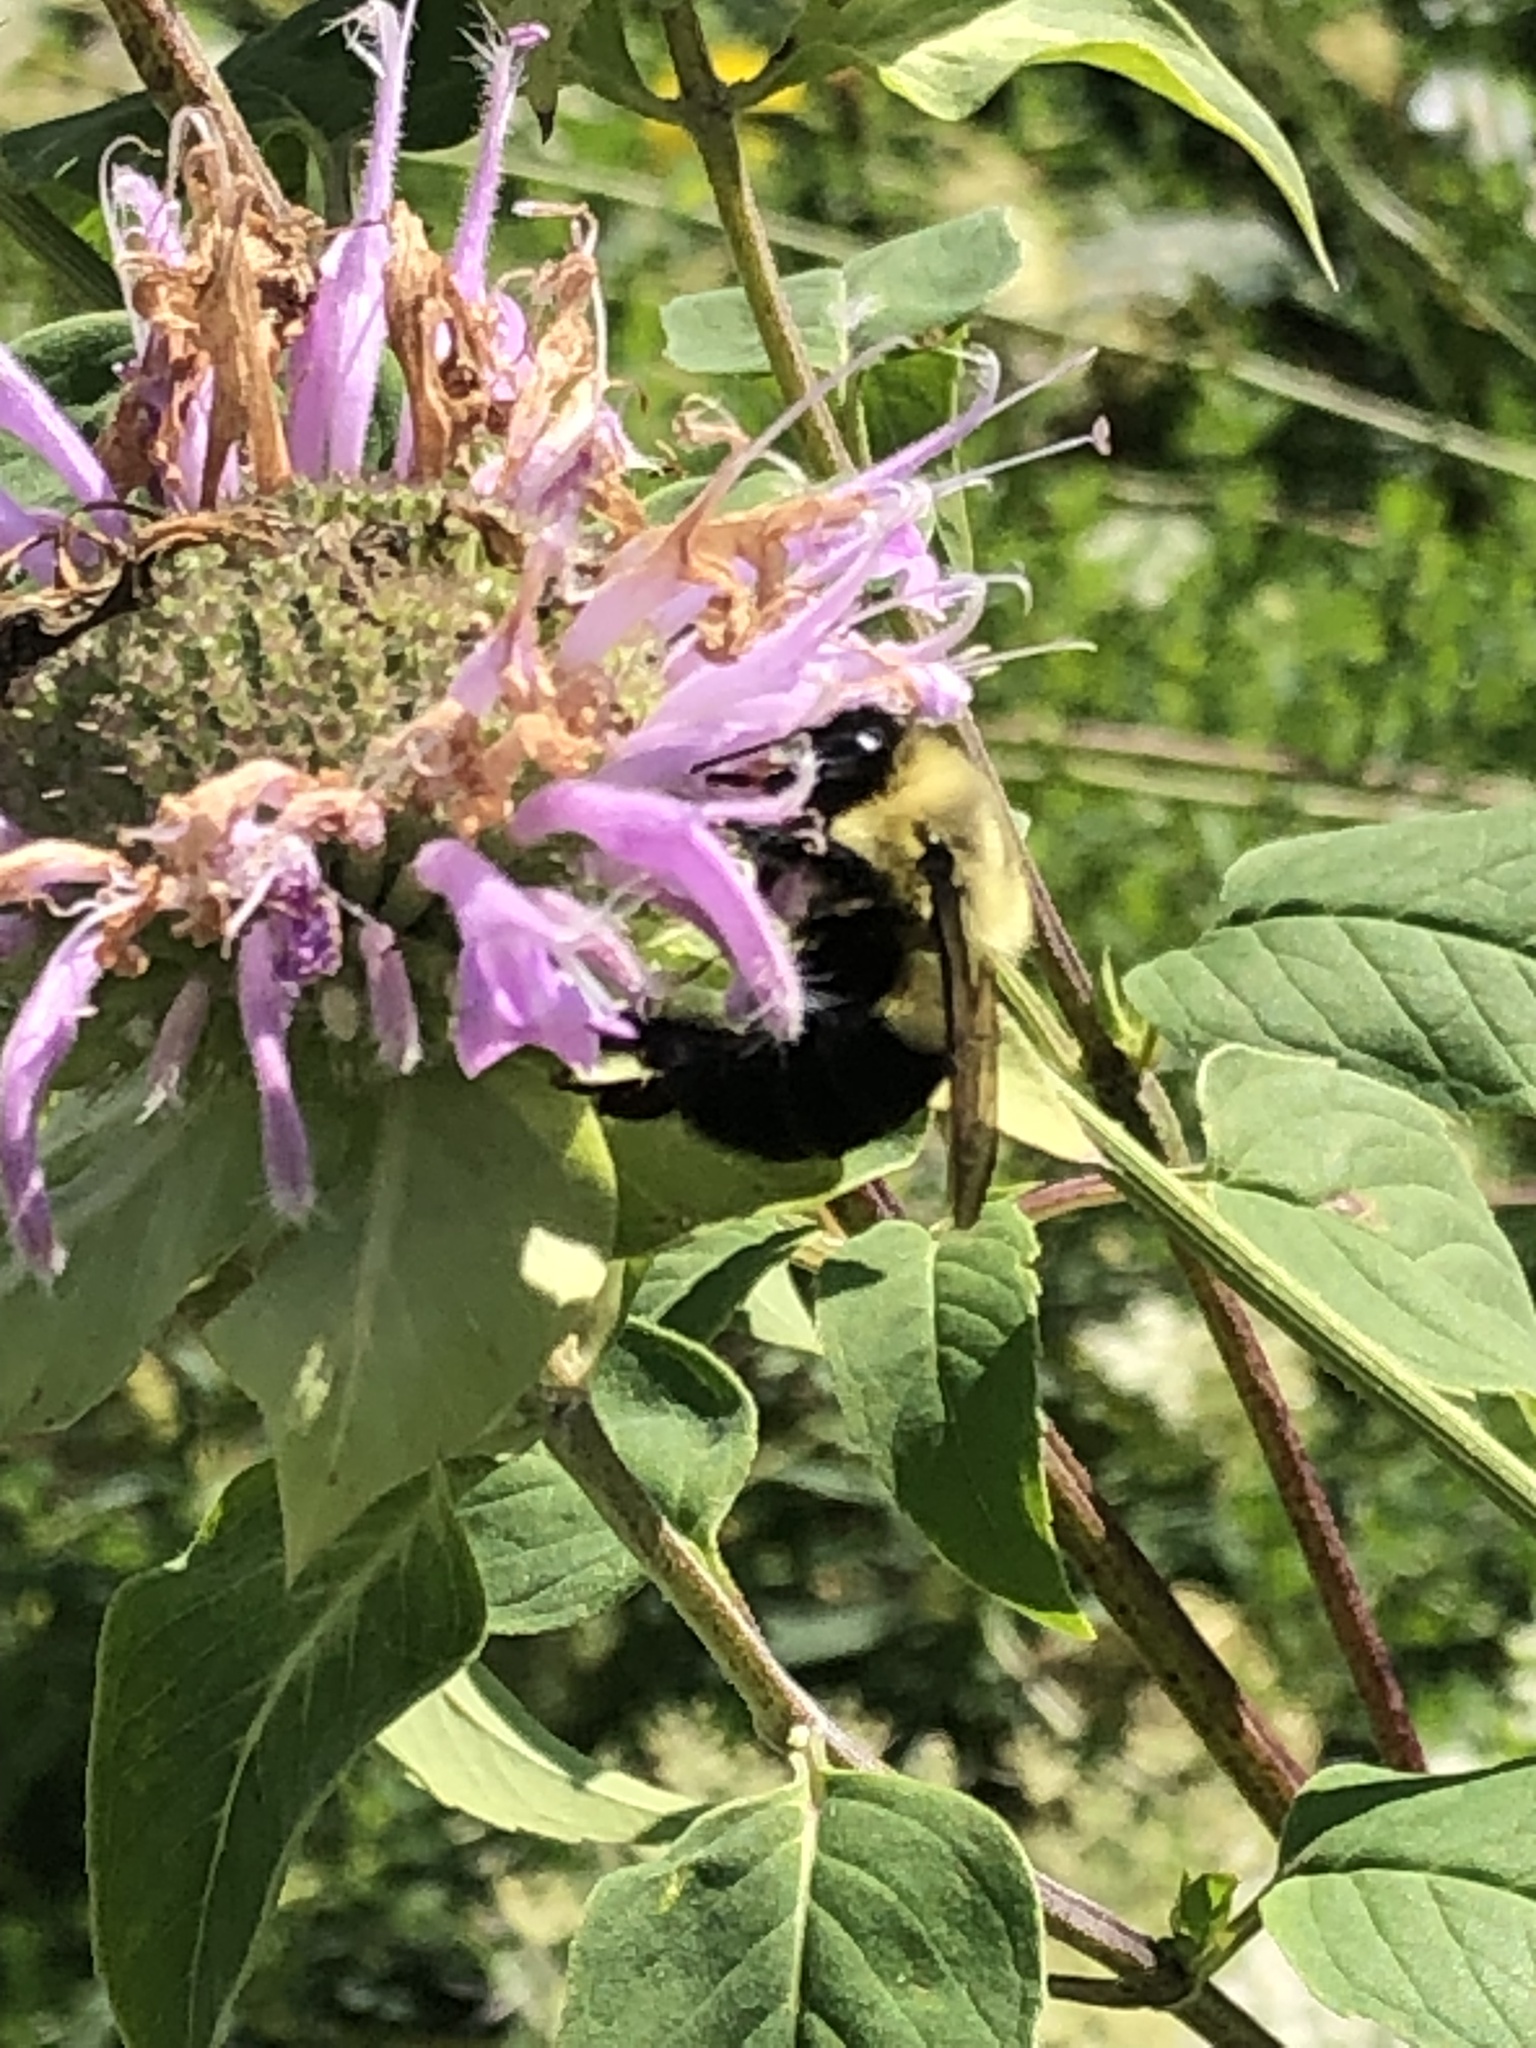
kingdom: Animalia
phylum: Arthropoda
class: Insecta
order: Hymenoptera
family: Apidae
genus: Bombus
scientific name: Bombus impatiens
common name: Common eastern bumble bee
